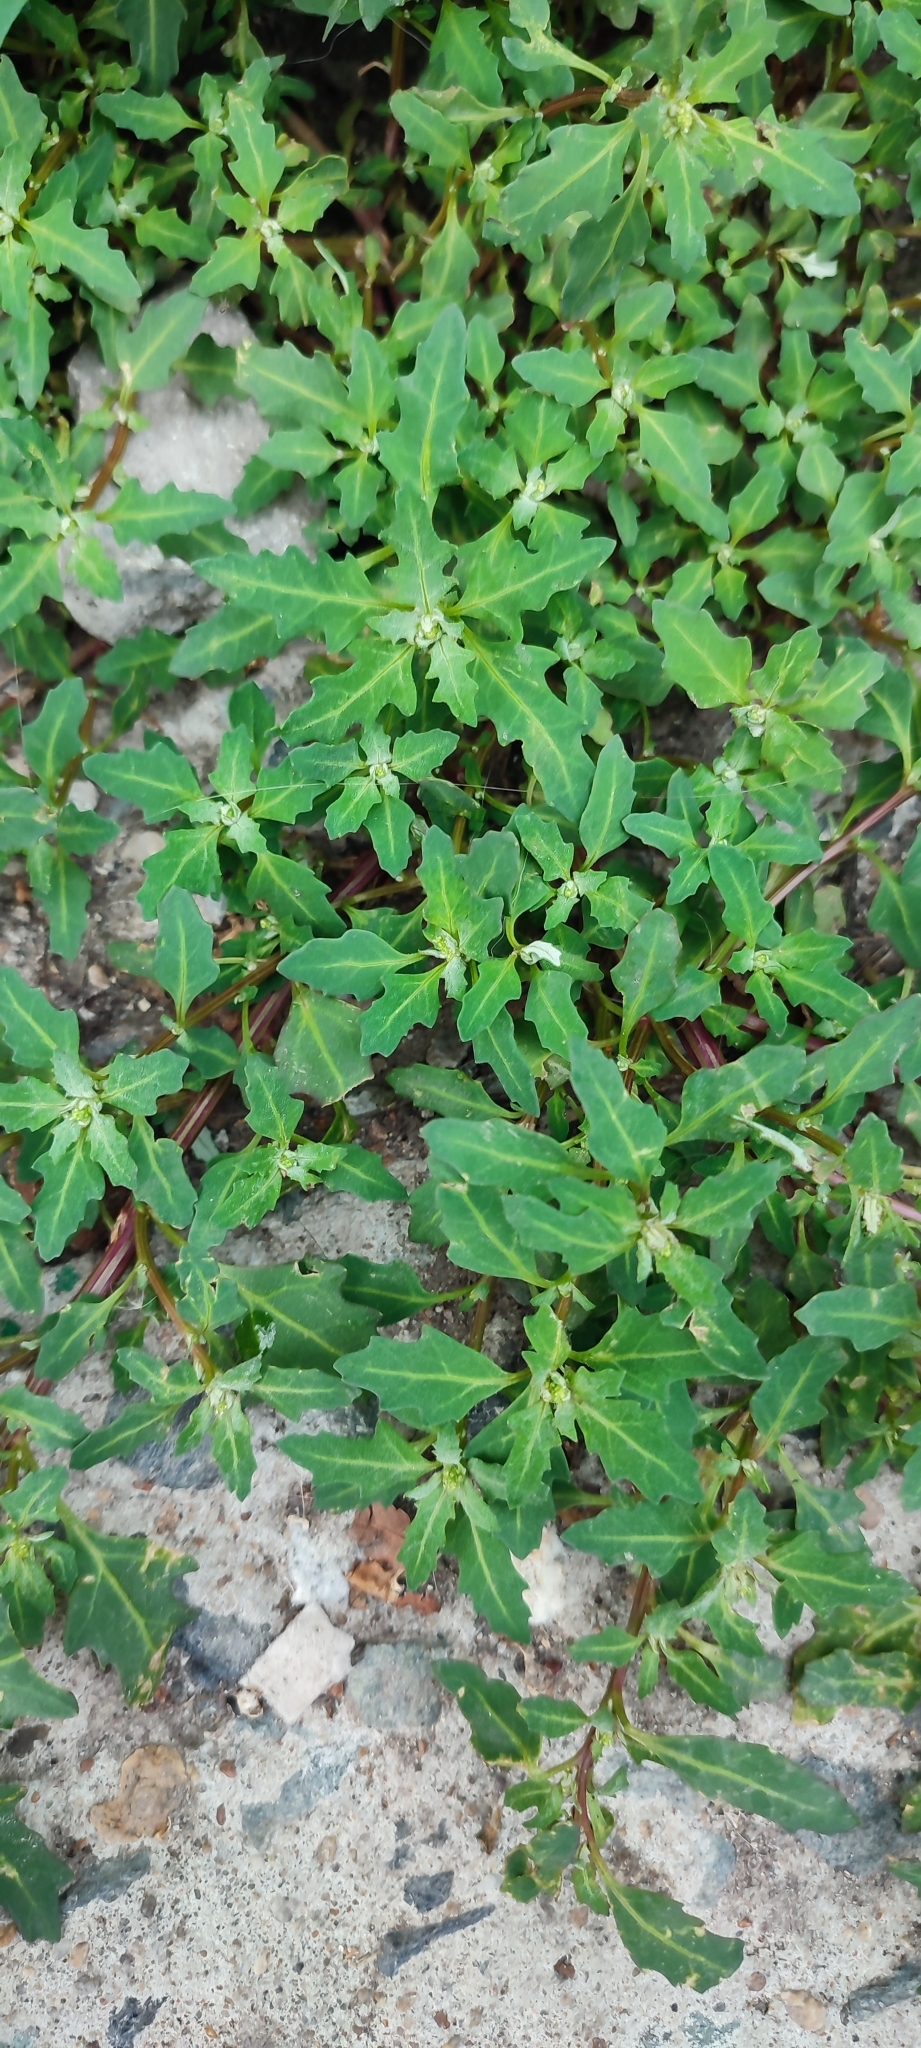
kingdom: Plantae
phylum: Tracheophyta
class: Magnoliopsida
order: Caryophyllales
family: Amaranthaceae
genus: Oxybasis
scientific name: Oxybasis glauca
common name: Glaucous goosefoot
